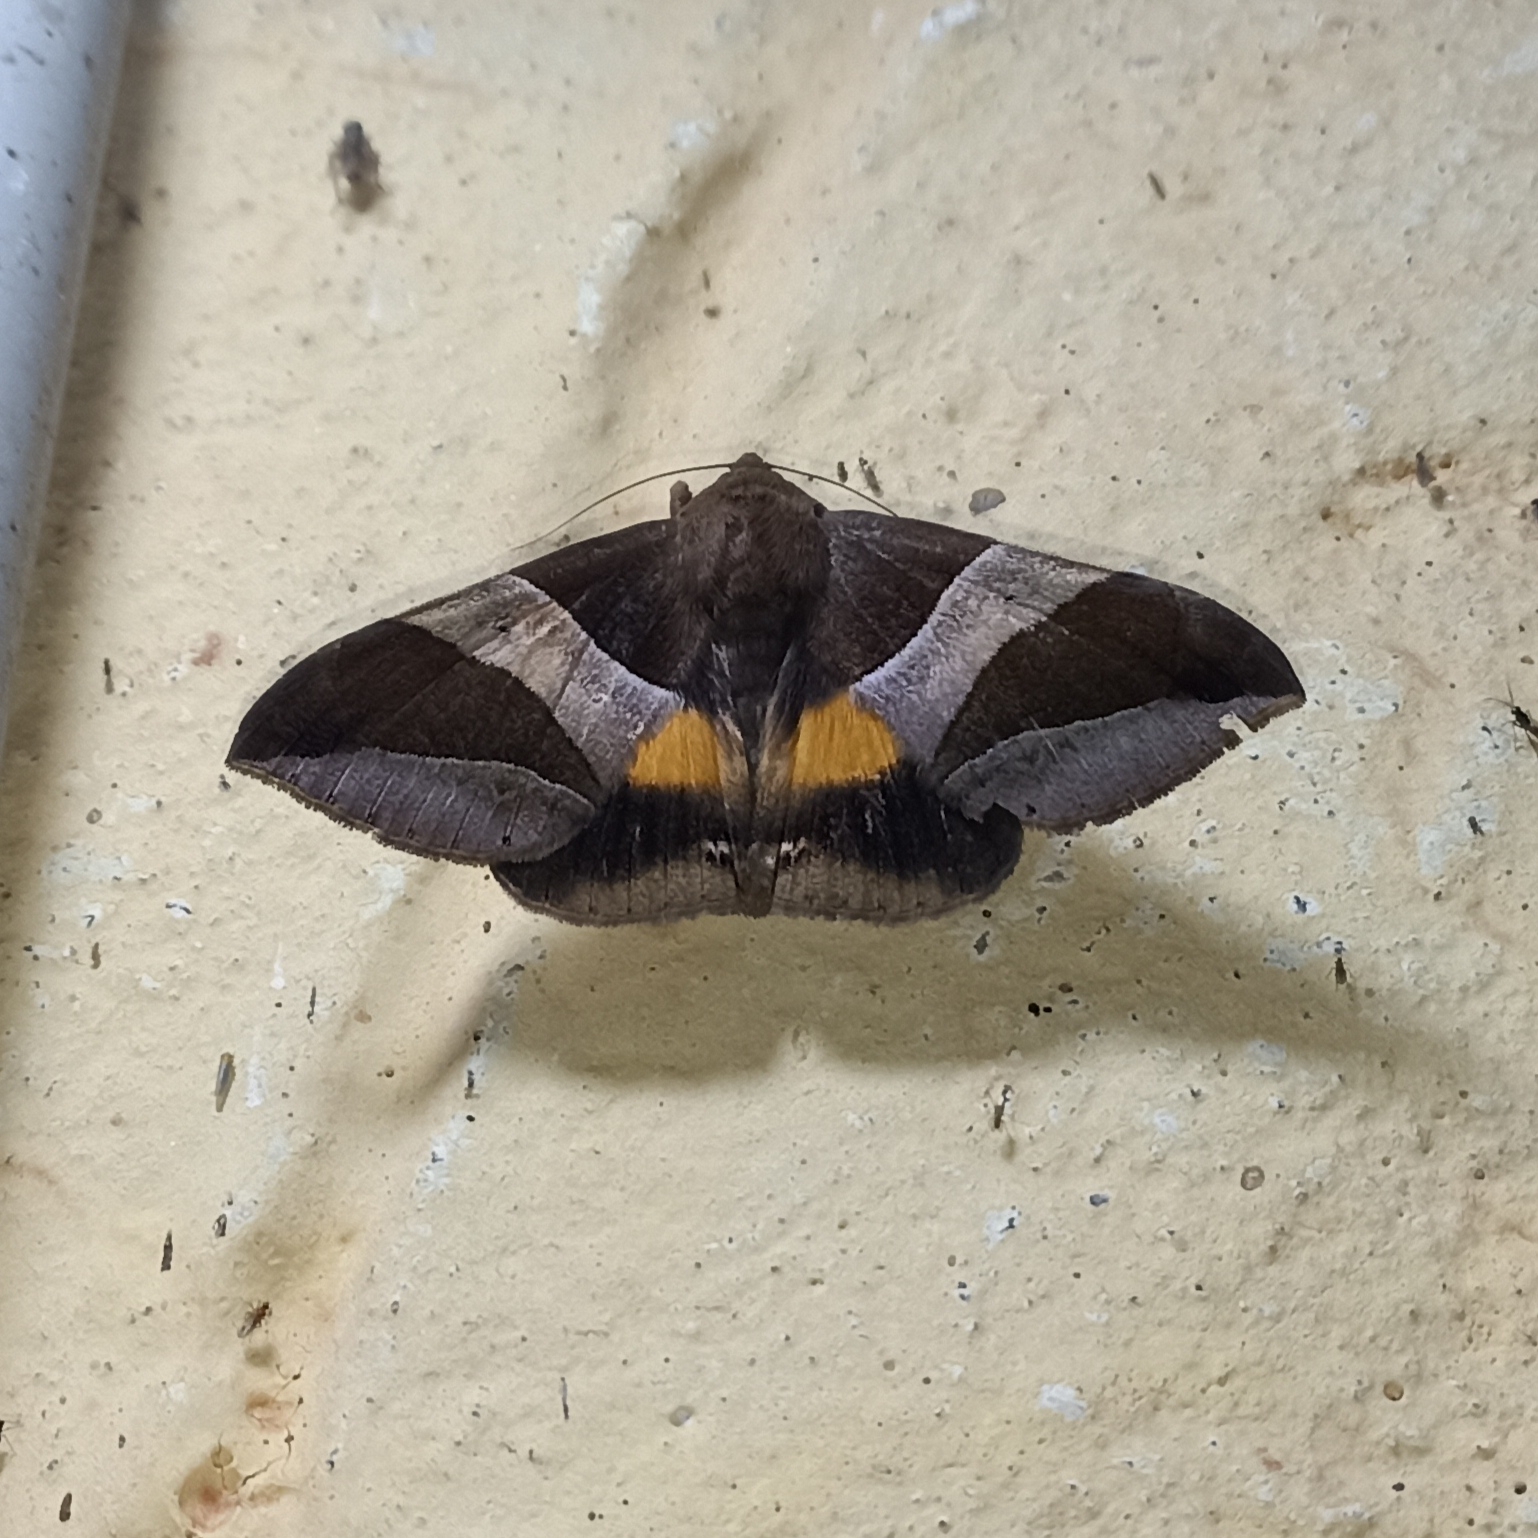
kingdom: Animalia
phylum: Arthropoda
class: Insecta
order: Lepidoptera
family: Erebidae
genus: Bastilla
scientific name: Bastilla fulvotaenia
